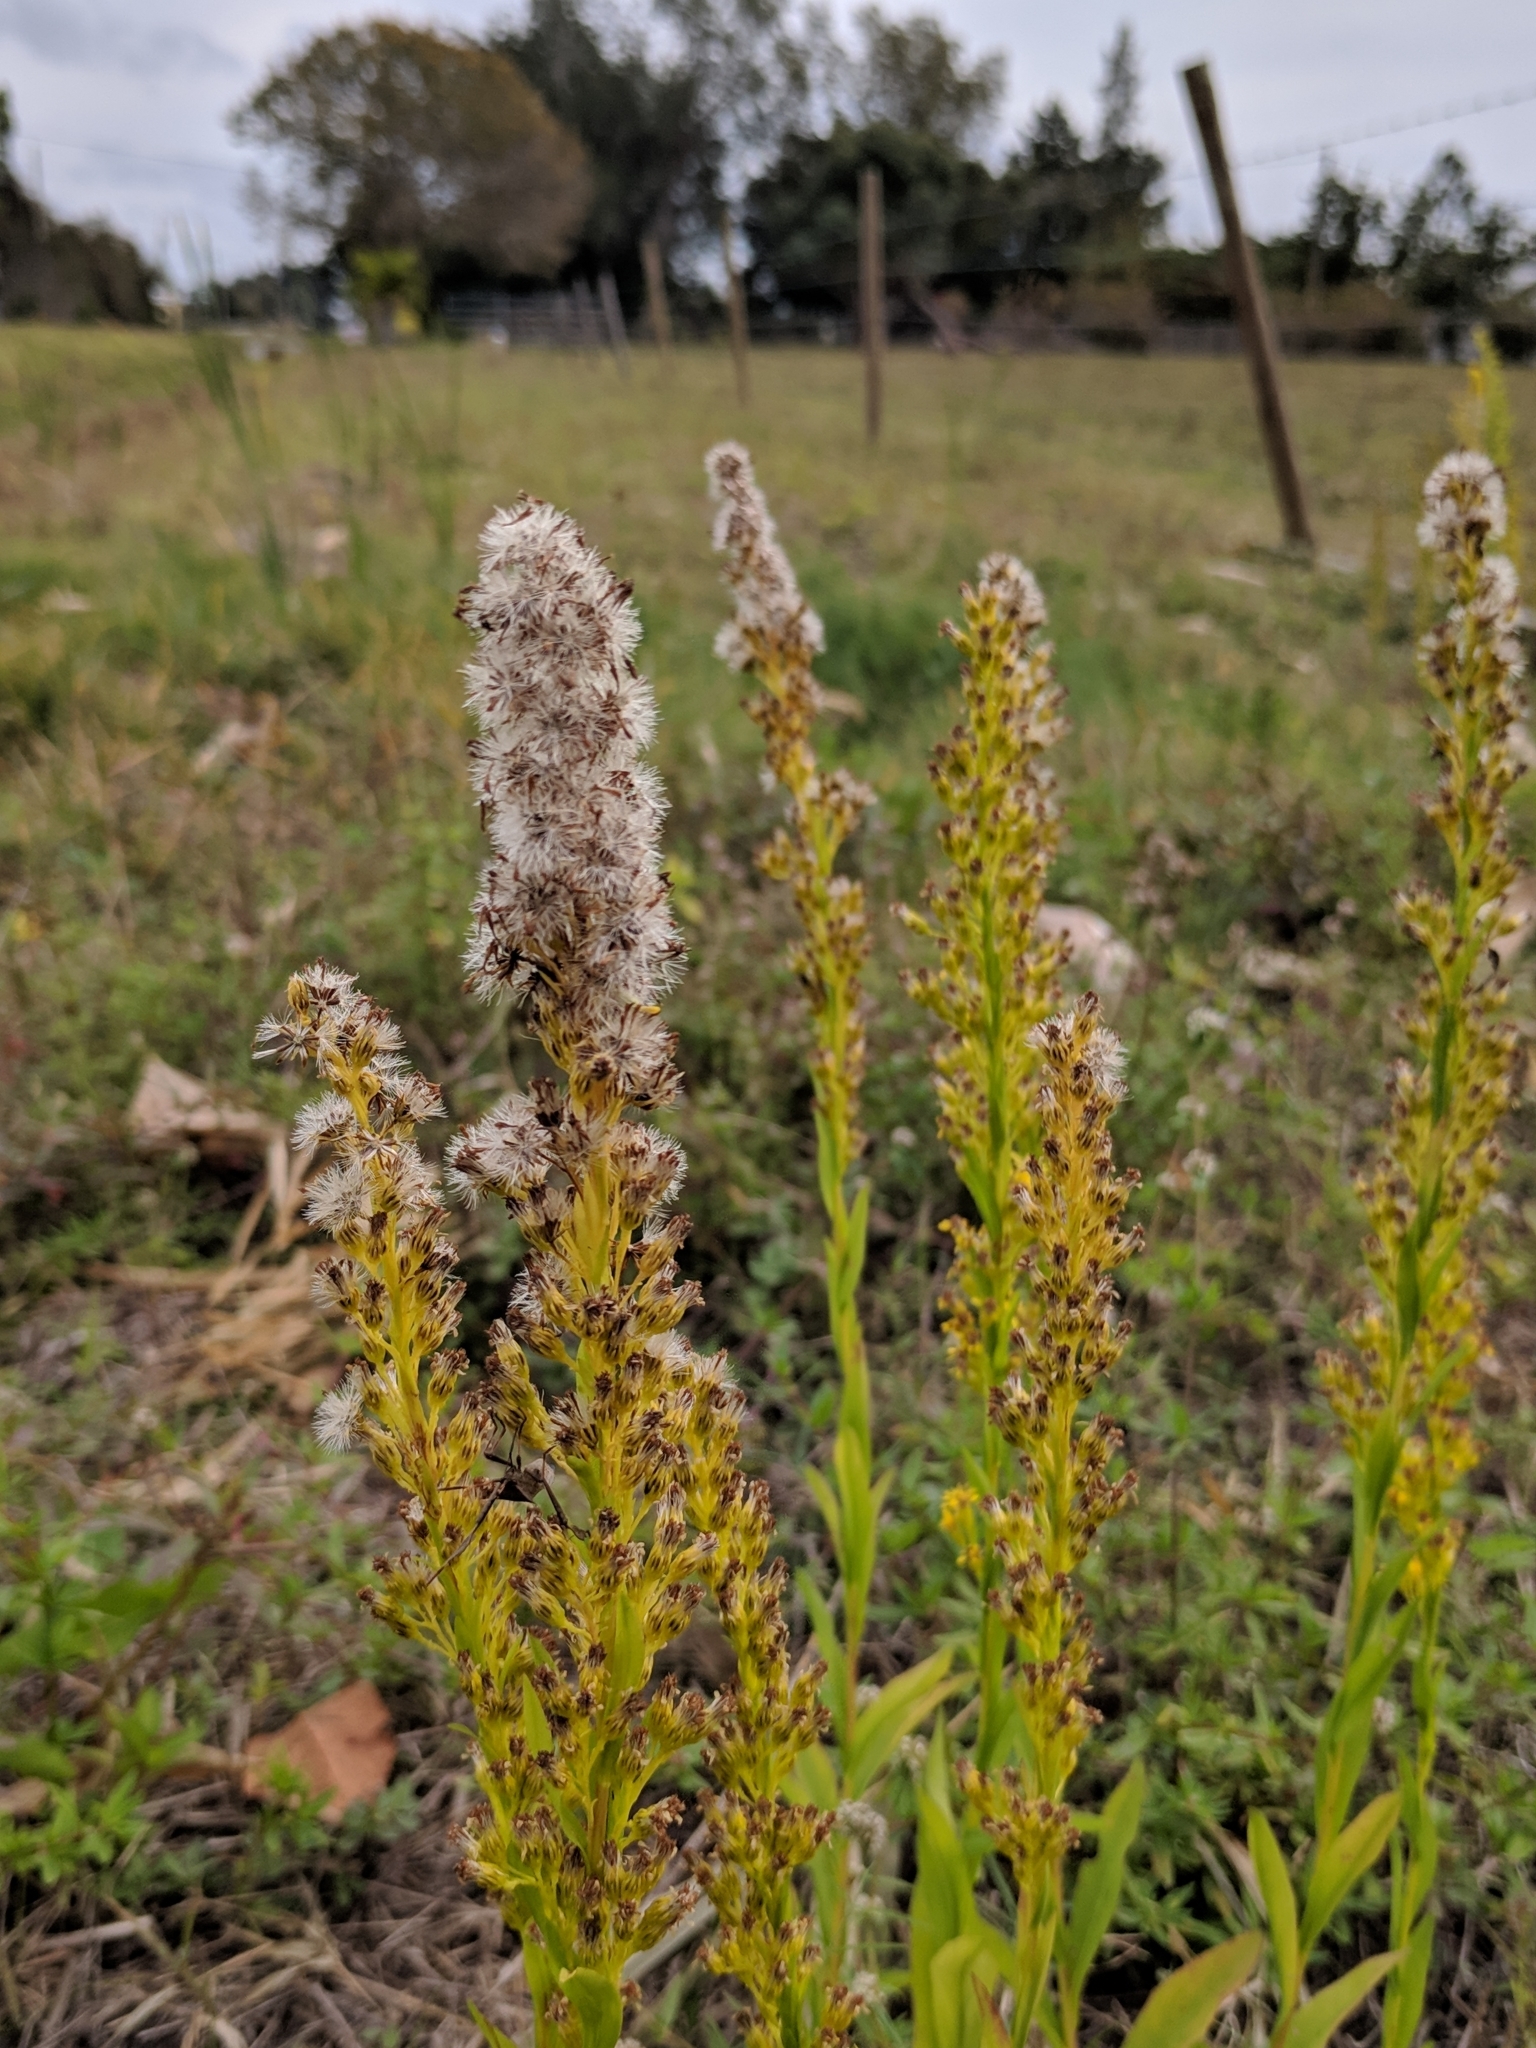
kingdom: Plantae
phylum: Tracheophyta
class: Magnoliopsida
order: Asterales
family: Asteraceae
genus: Solidago
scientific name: Solidago mexicana
